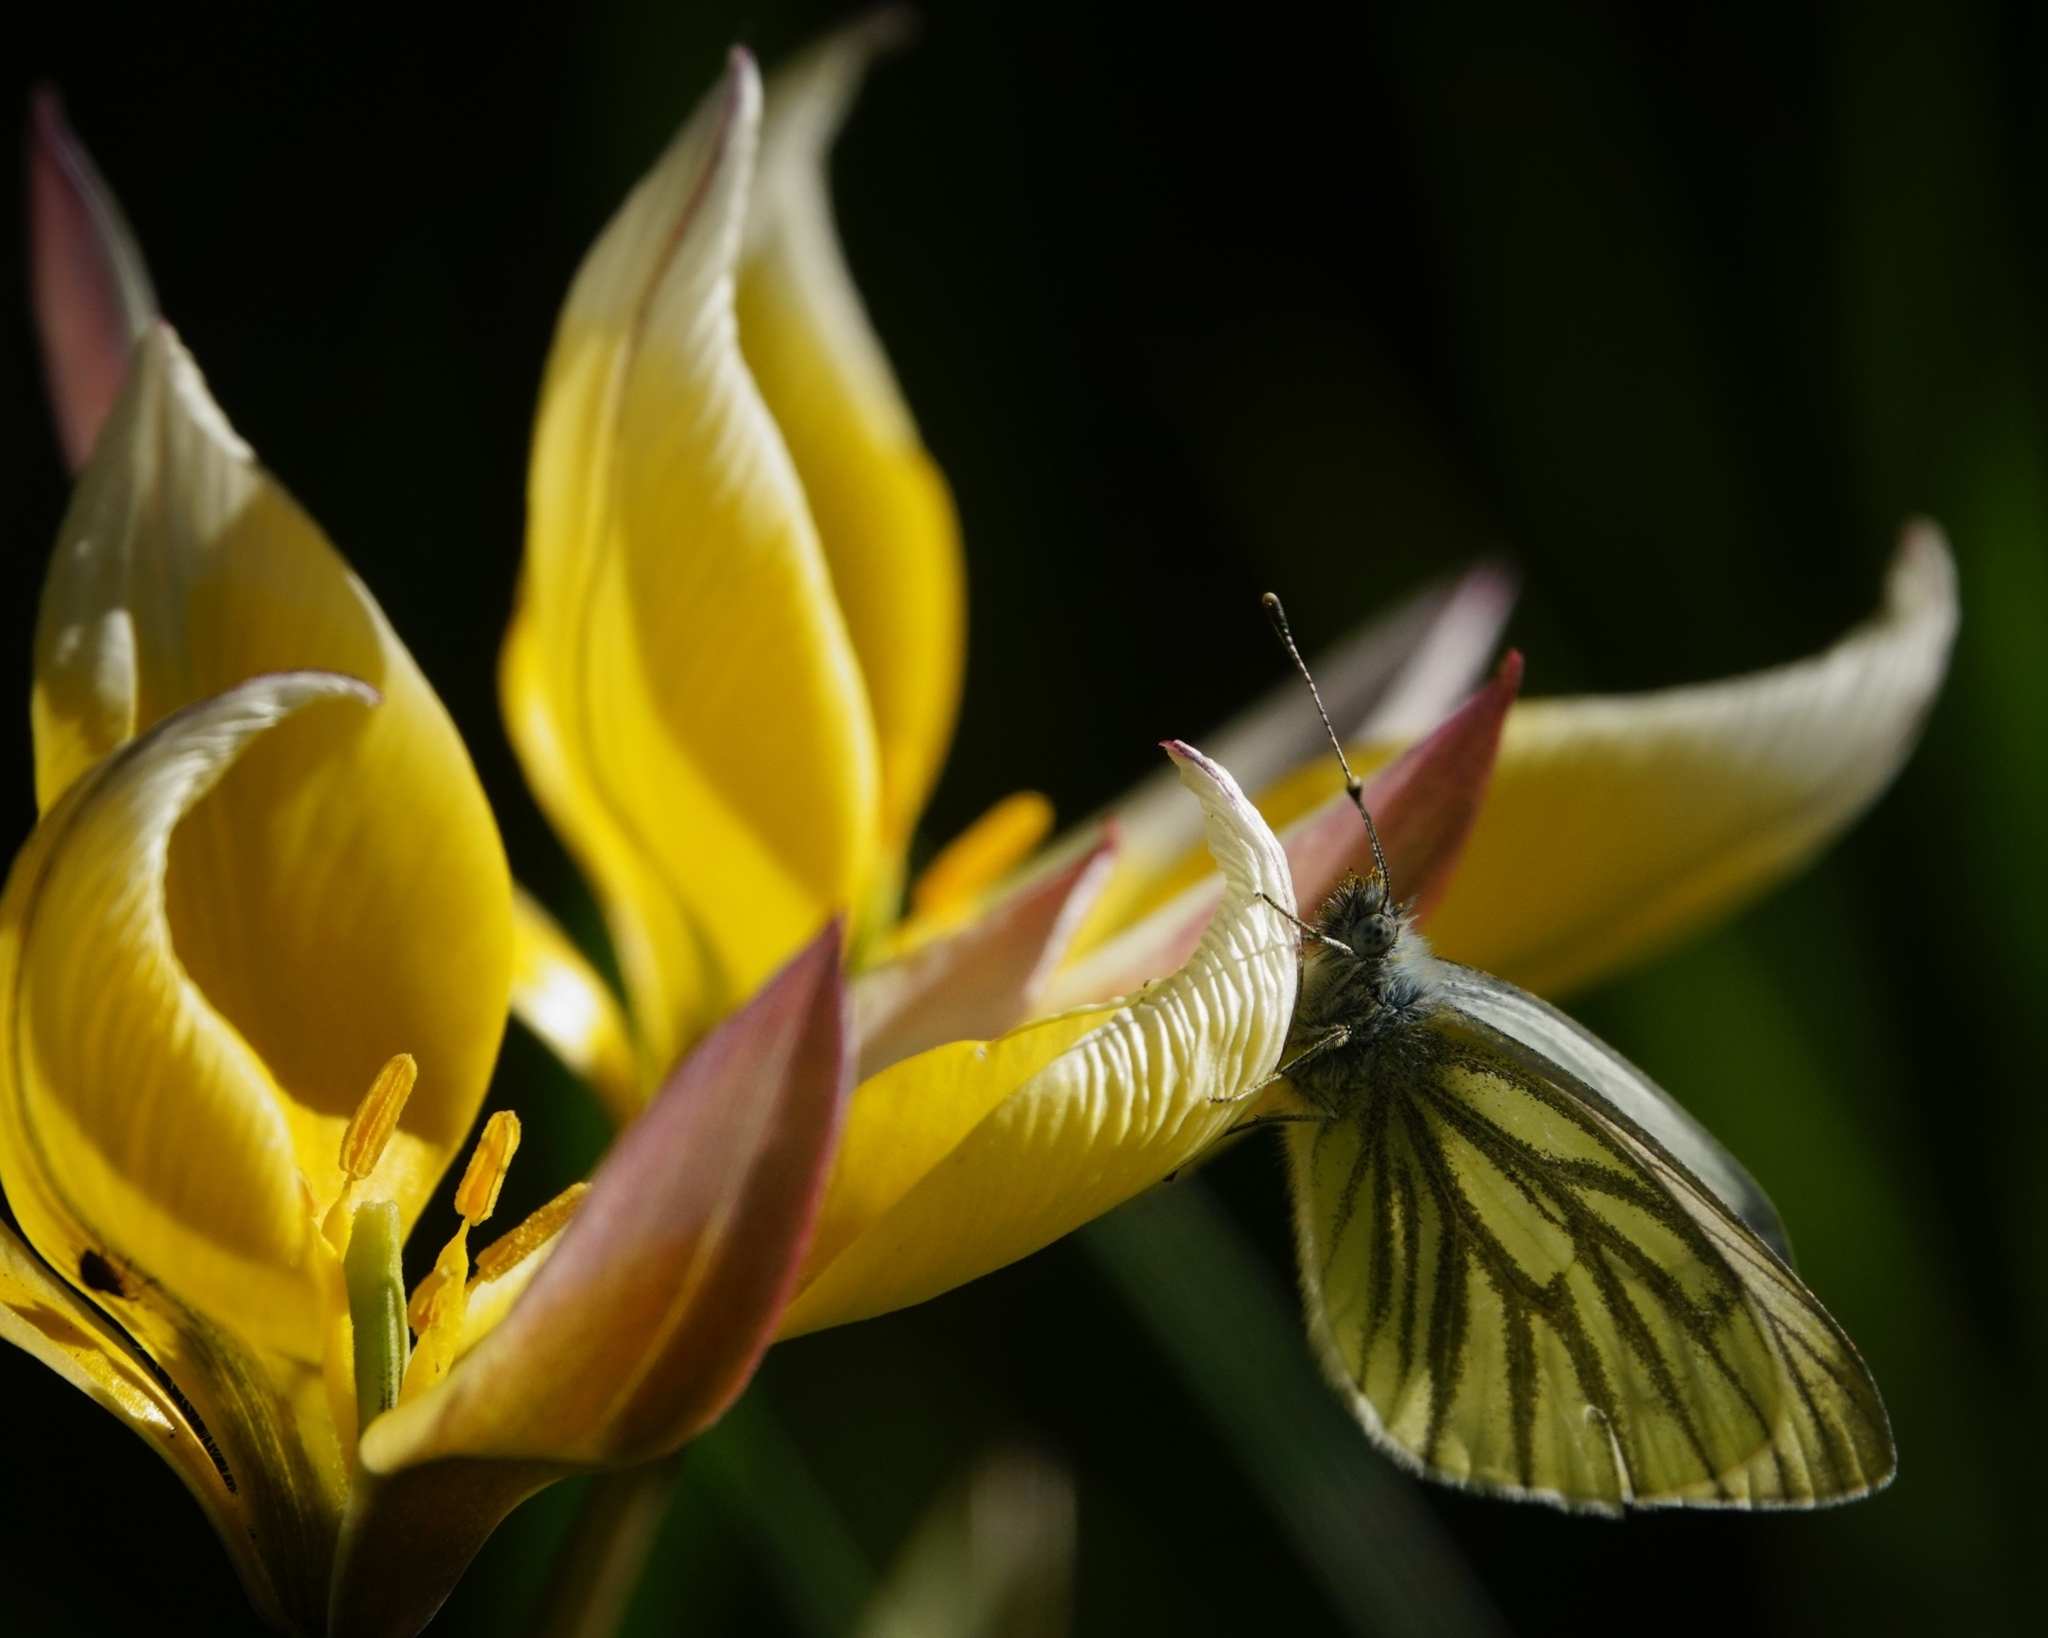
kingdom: Animalia
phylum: Arthropoda
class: Insecta
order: Lepidoptera
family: Pieridae
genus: Pieris
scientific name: Pieris napi
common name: Green-veined white
